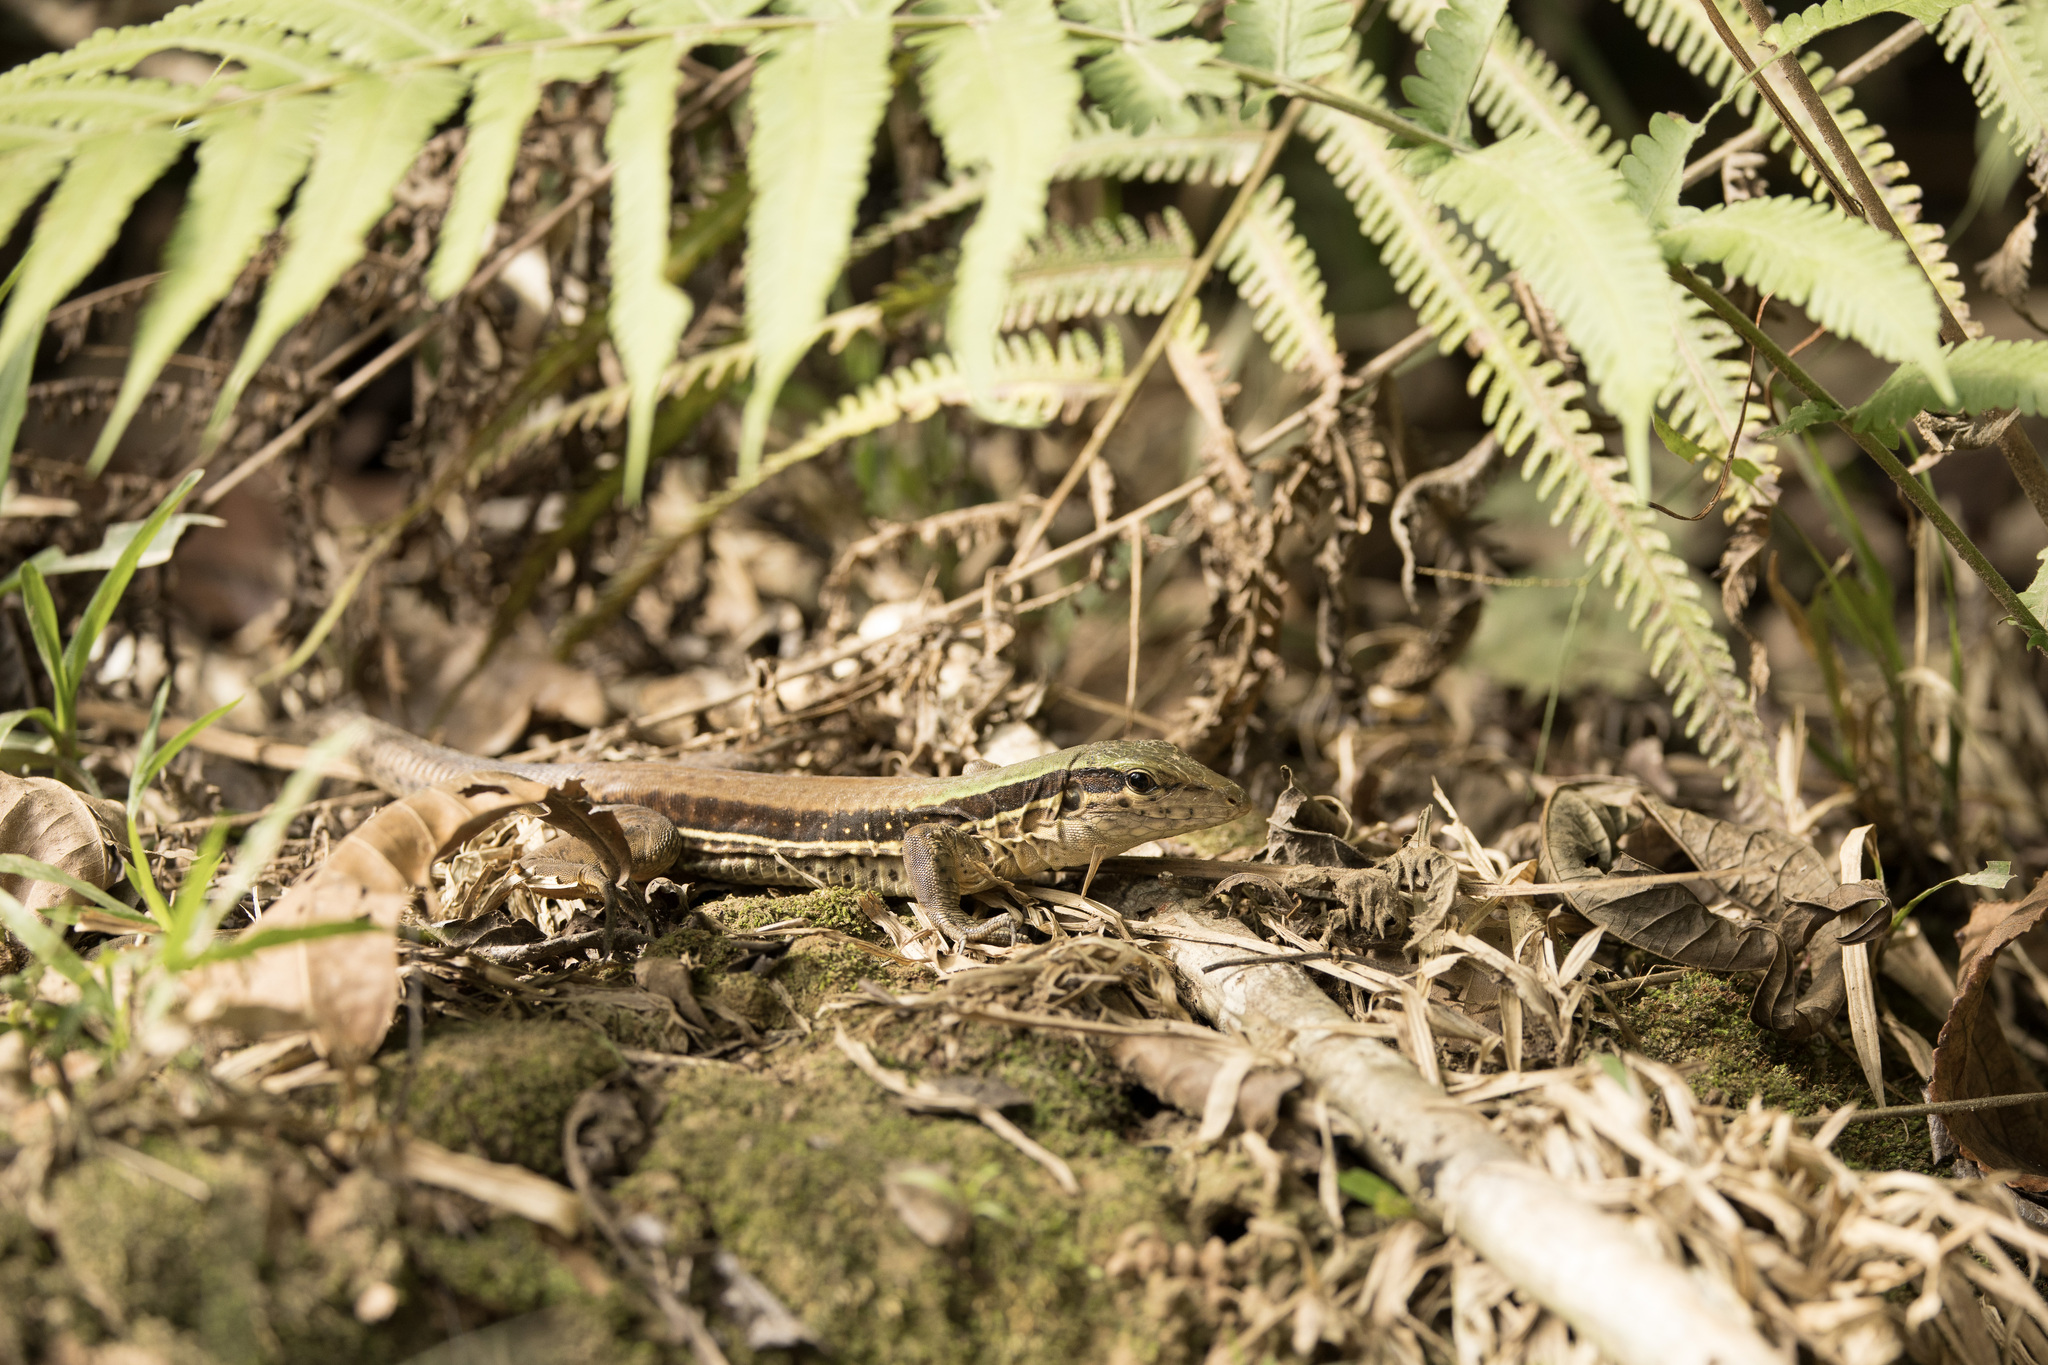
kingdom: Animalia
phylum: Chordata
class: Squamata
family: Teiidae
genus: Ameiva
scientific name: Ameiva ameiva
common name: Giant ameiva
